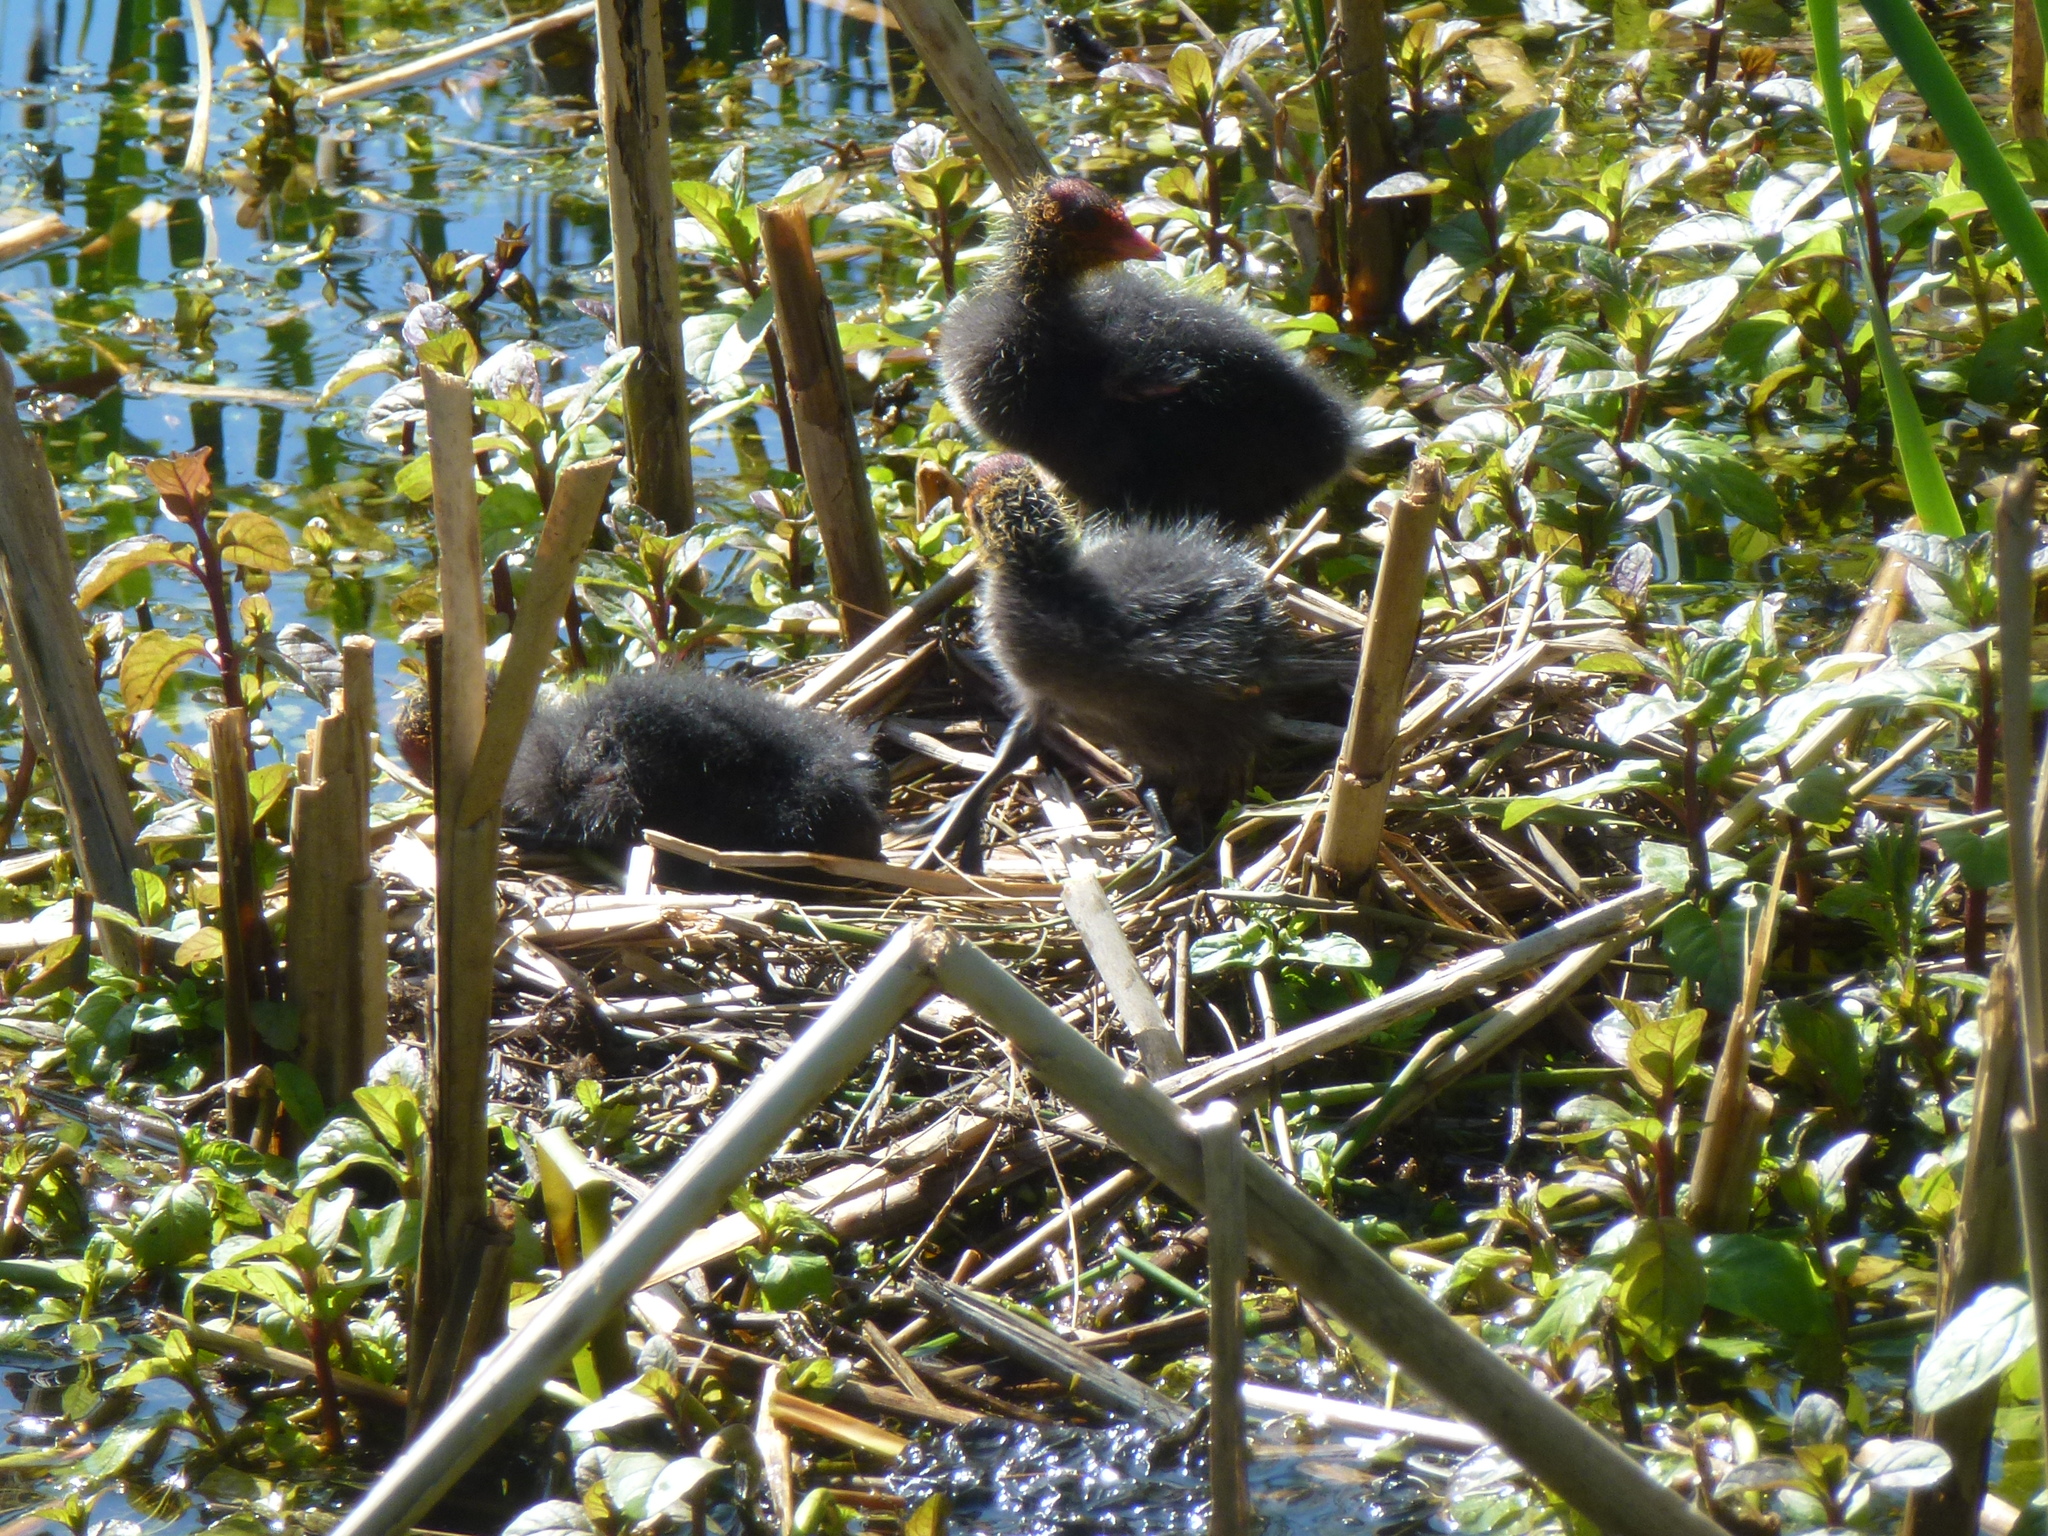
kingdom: Animalia
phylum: Chordata
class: Aves
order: Gruiformes
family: Rallidae
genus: Fulica
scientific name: Fulica atra
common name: Eurasian coot
